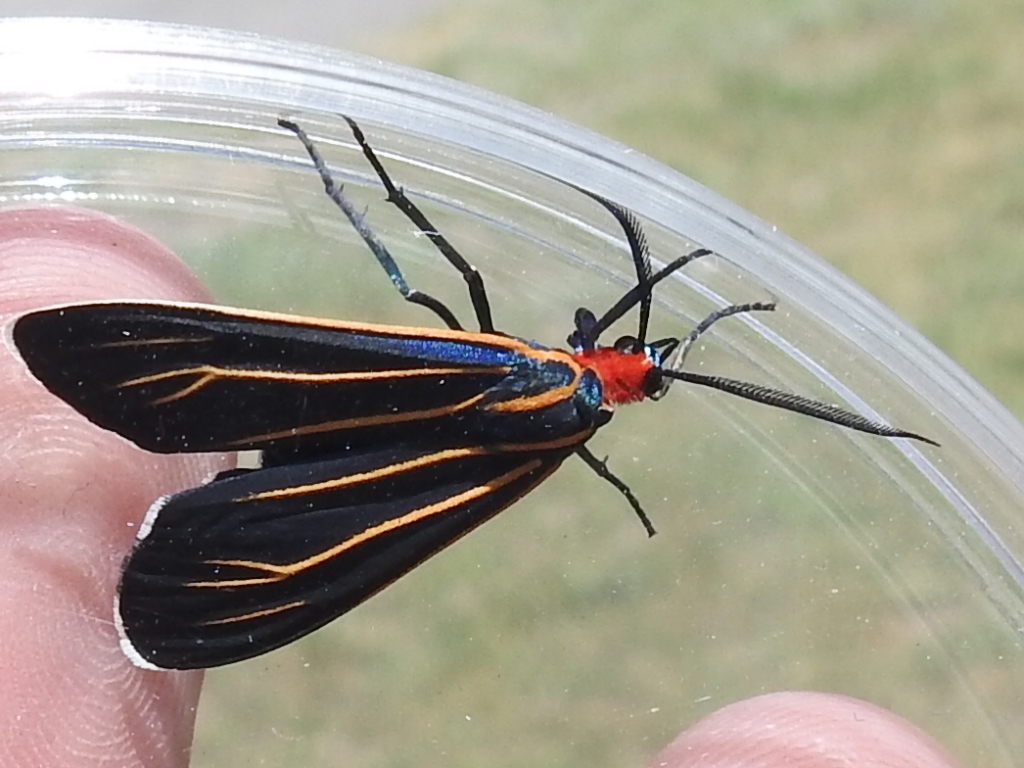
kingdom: Animalia
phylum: Arthropoda
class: Insecta
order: Lepidoptera
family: Erebidae
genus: Ctenucha
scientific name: Ctenucha venosa
